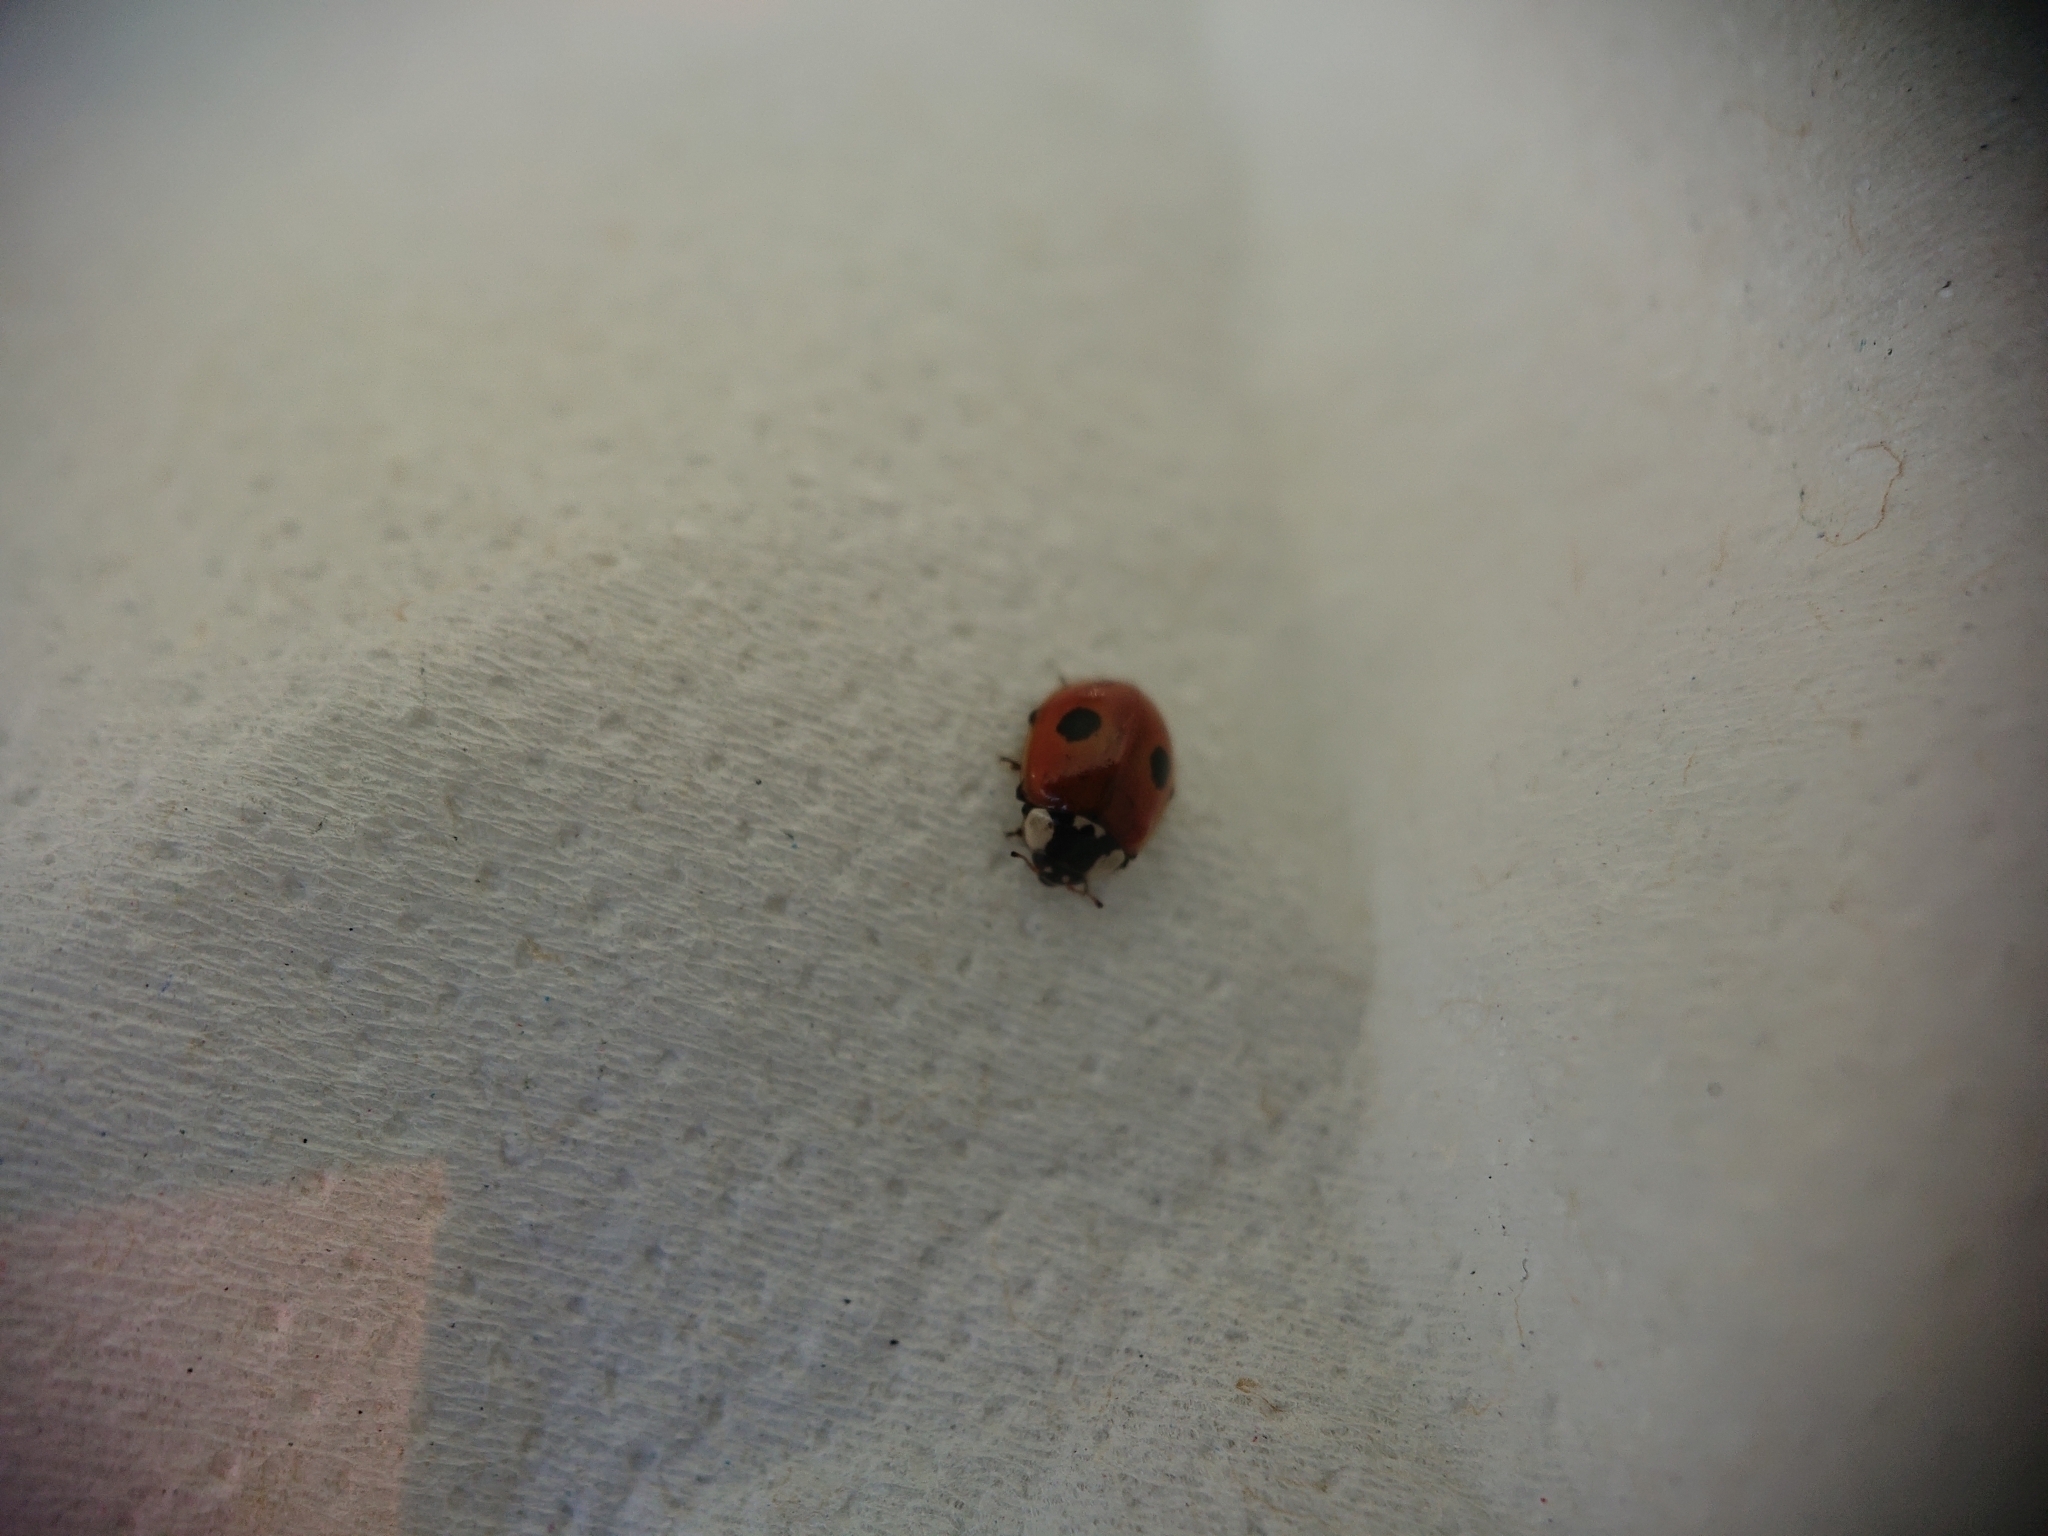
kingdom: Animalia
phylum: Arthropoda
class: Insecta
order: Coleoptera
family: Coccinellidae
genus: Adalia
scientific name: Adalia bipunctata
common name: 2-spot ladybird
